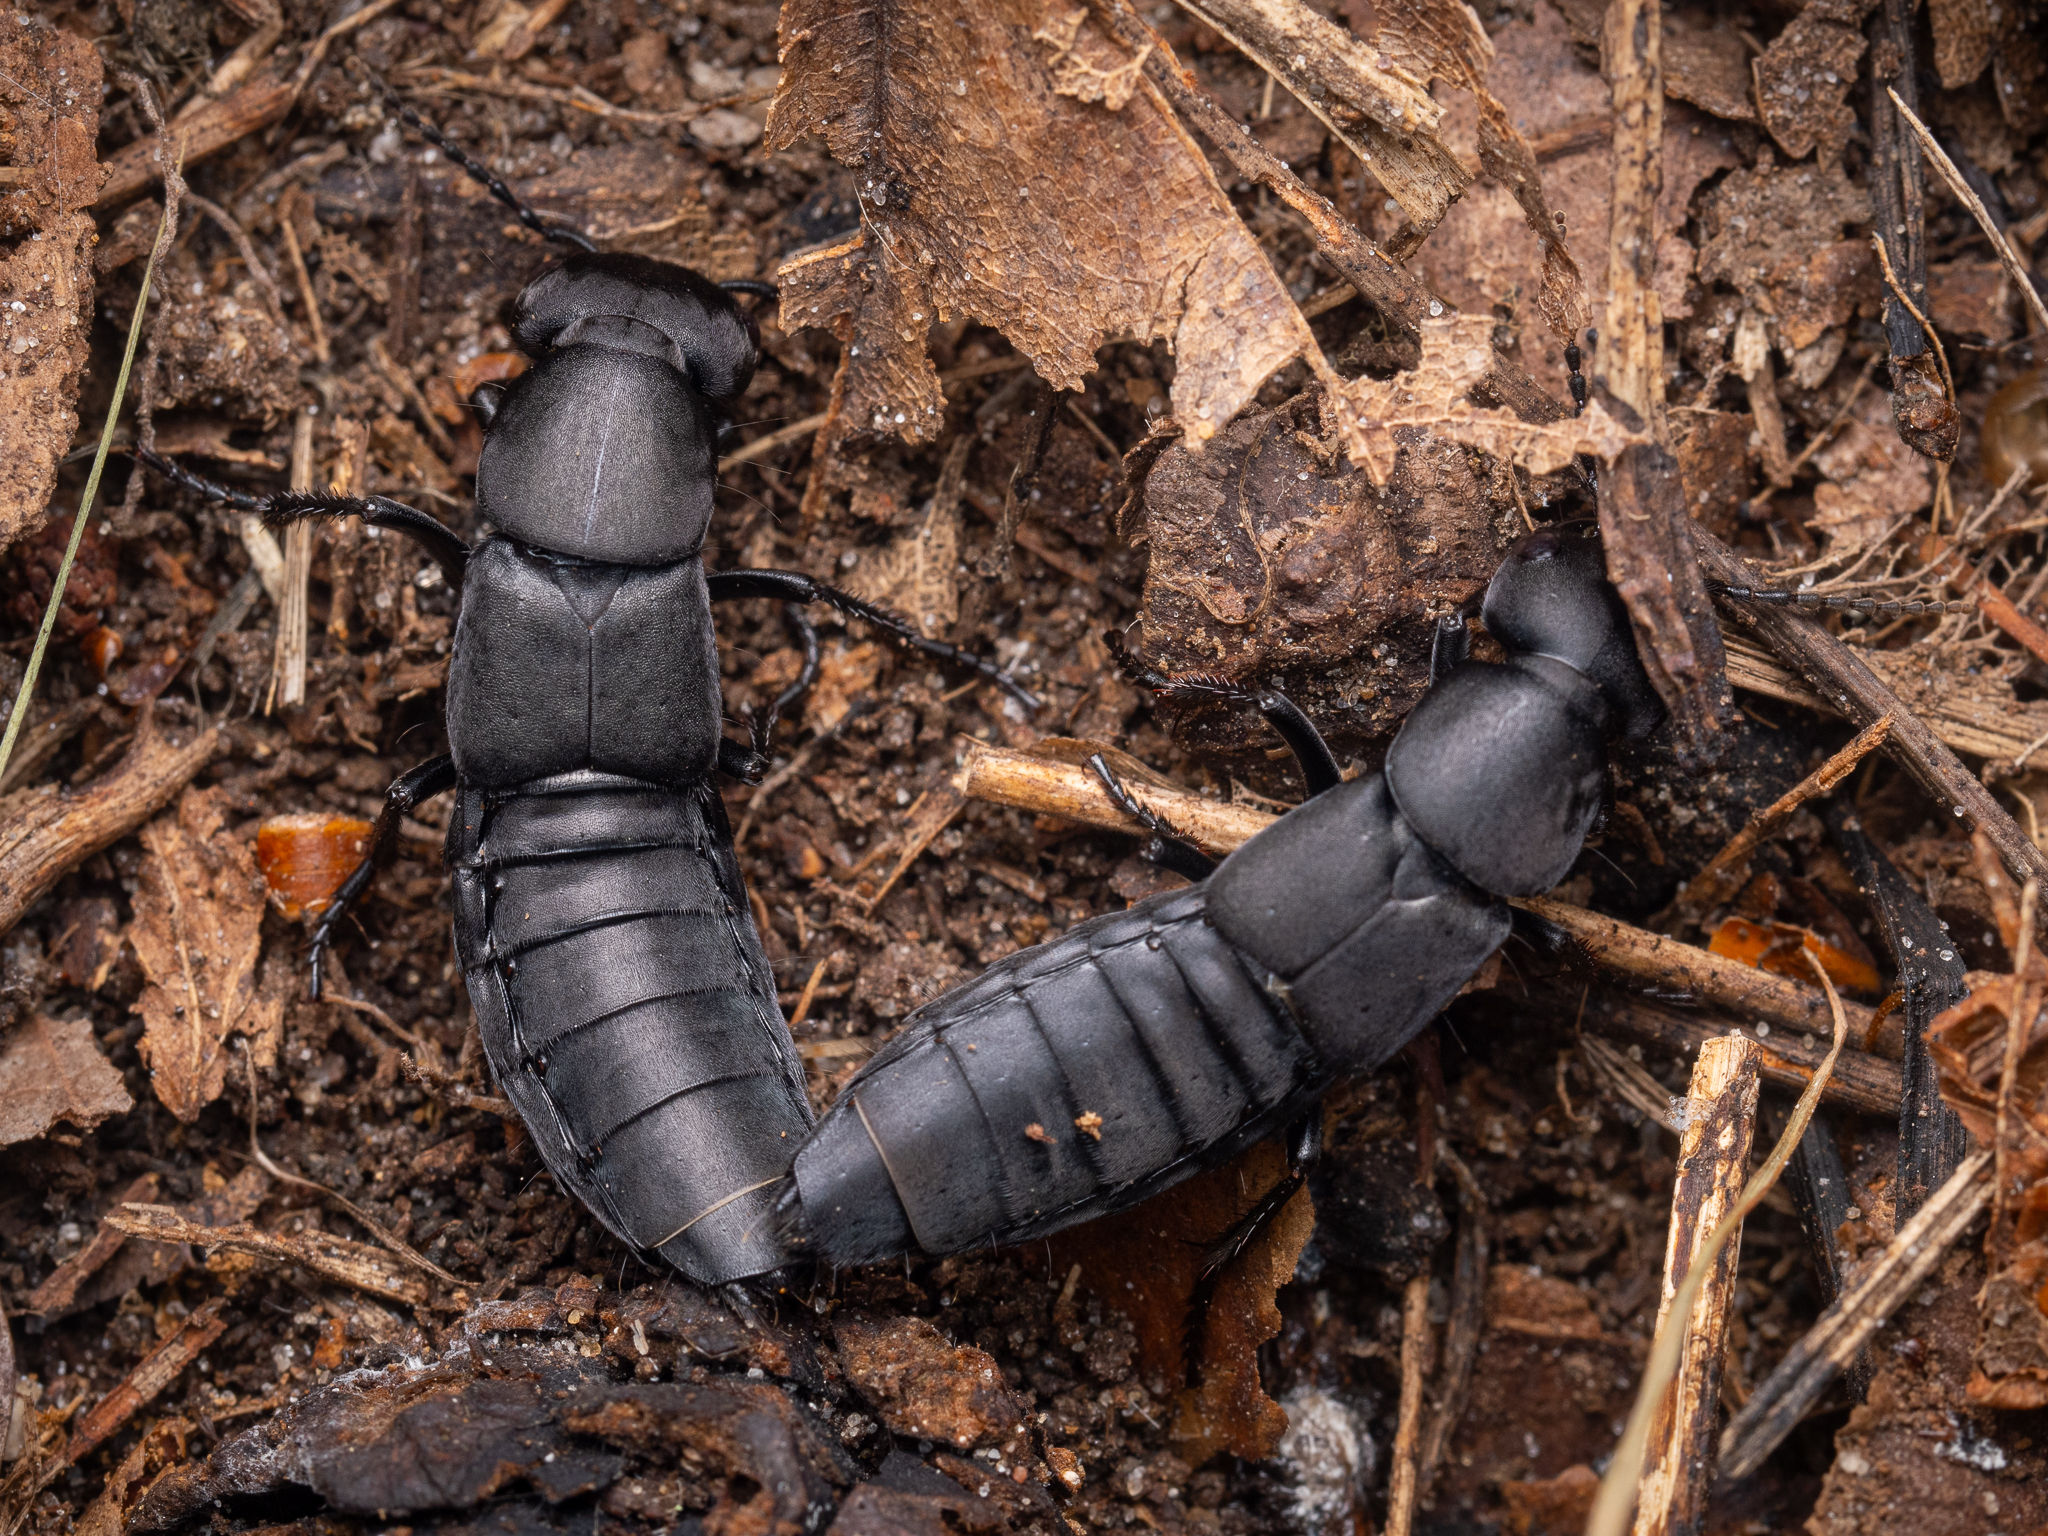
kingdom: Animalia
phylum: Arthropoda
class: Insecta
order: Coleoptera
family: Staphylinidae
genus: Ocypus
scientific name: Ocypus olens
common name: Devil's coach-horse
